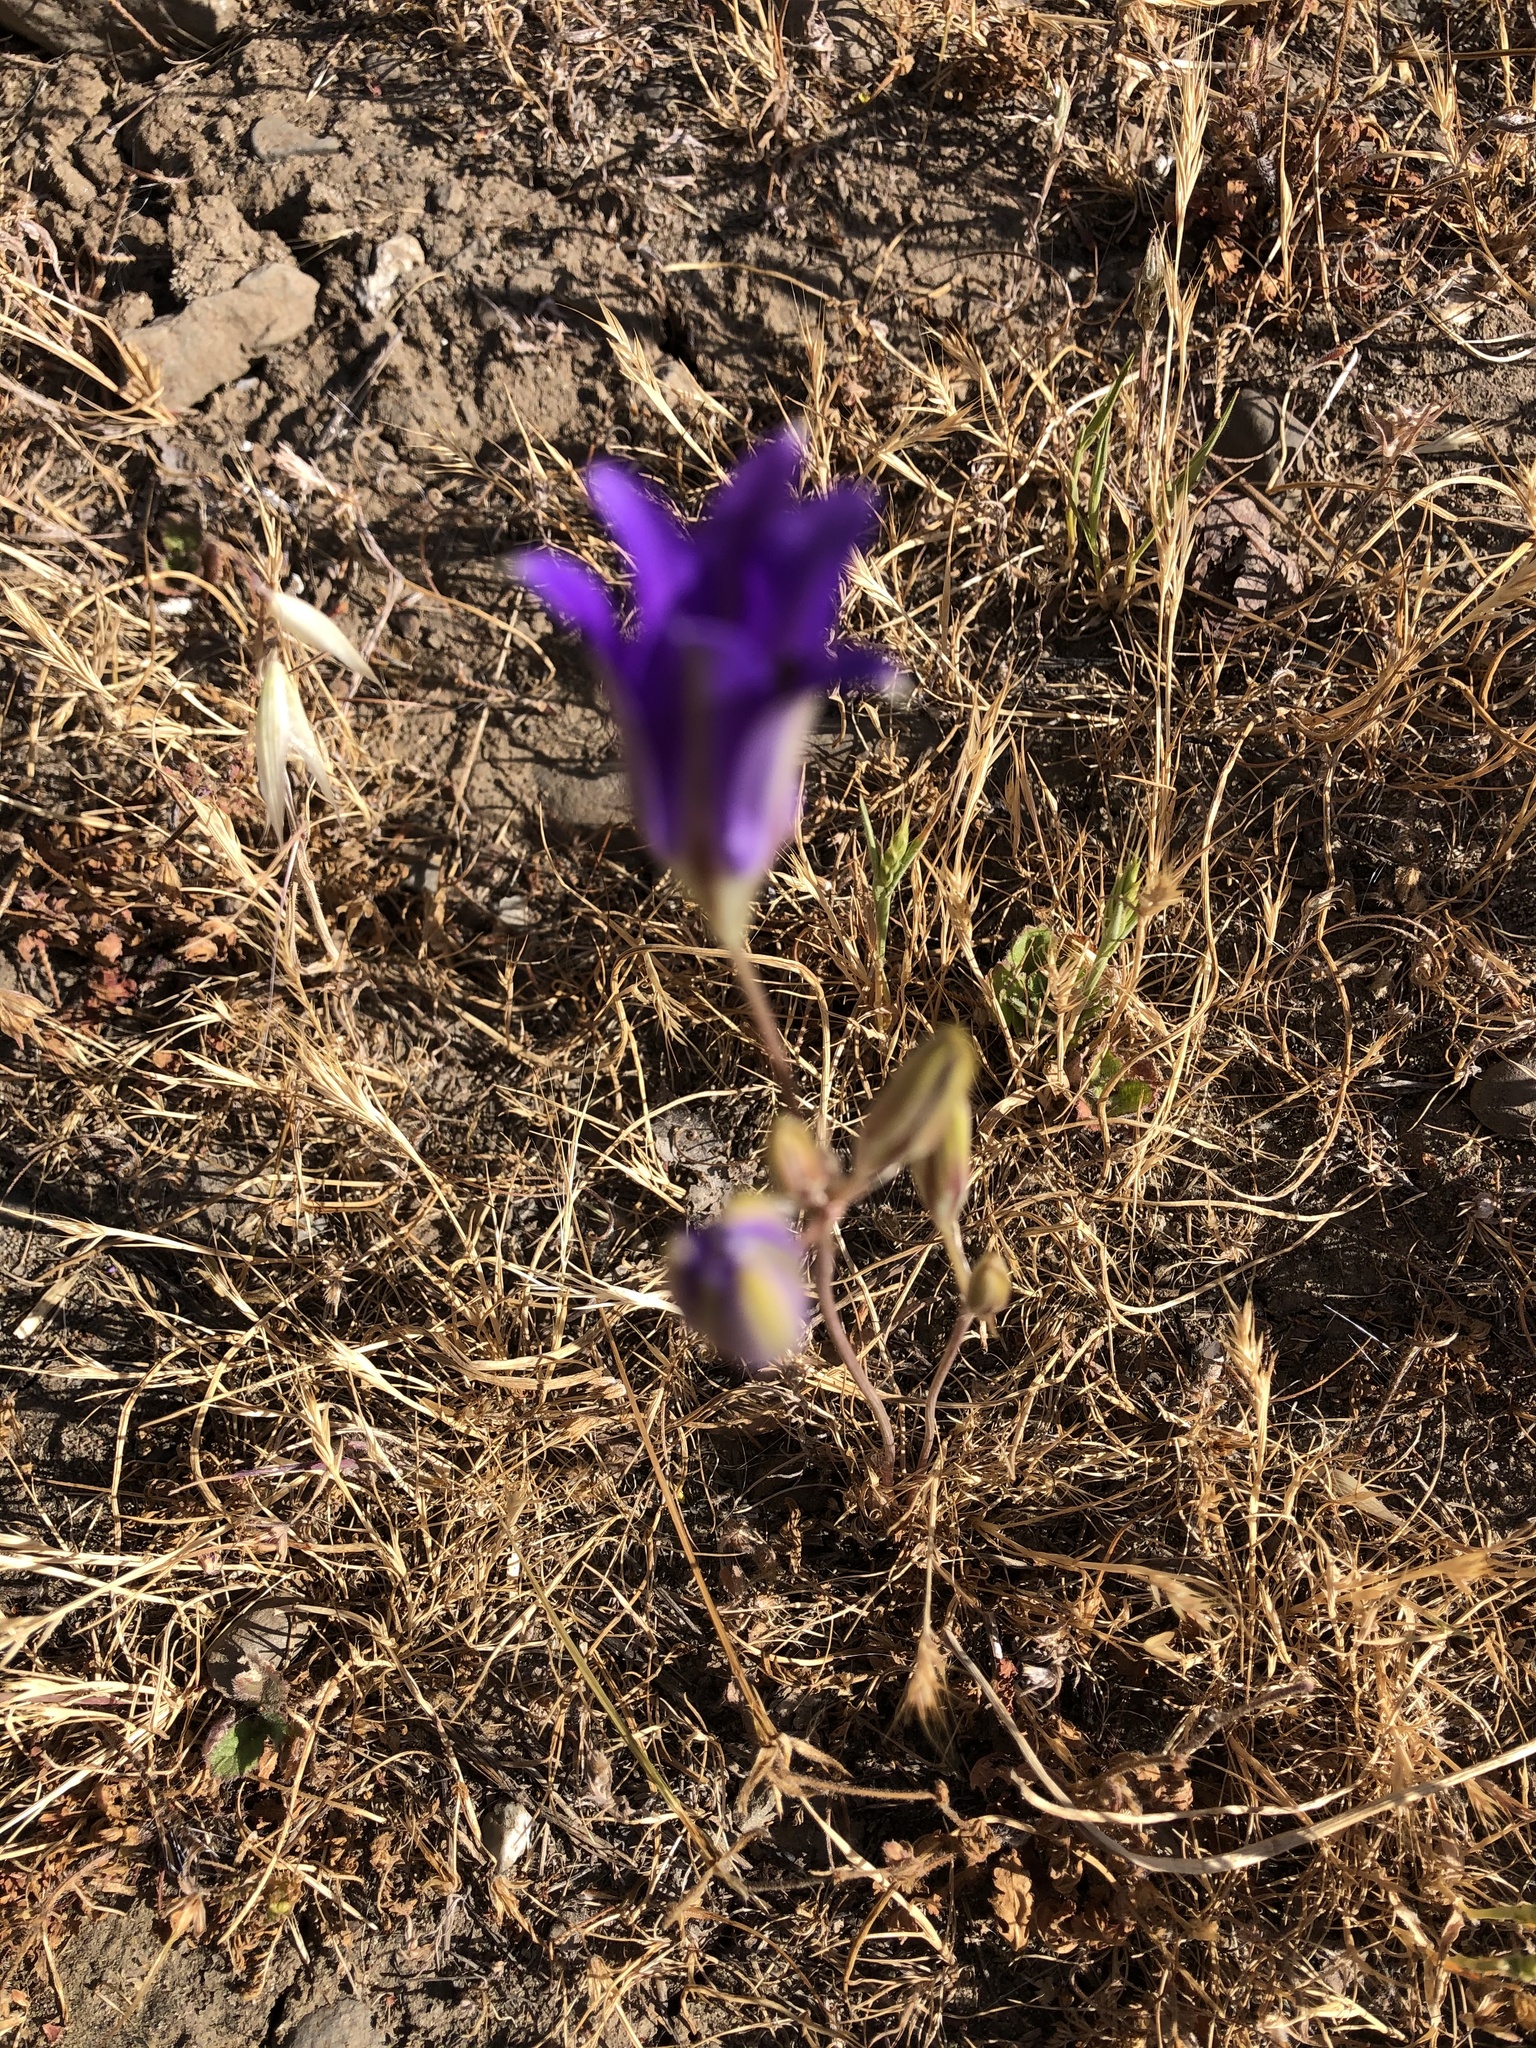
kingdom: Plantae
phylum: Tracheophyta
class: Liliopsida
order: Asparagales
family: Asparagaceae
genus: Brodiaea
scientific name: Brodiaea elegans
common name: Elegant cluster-lily
